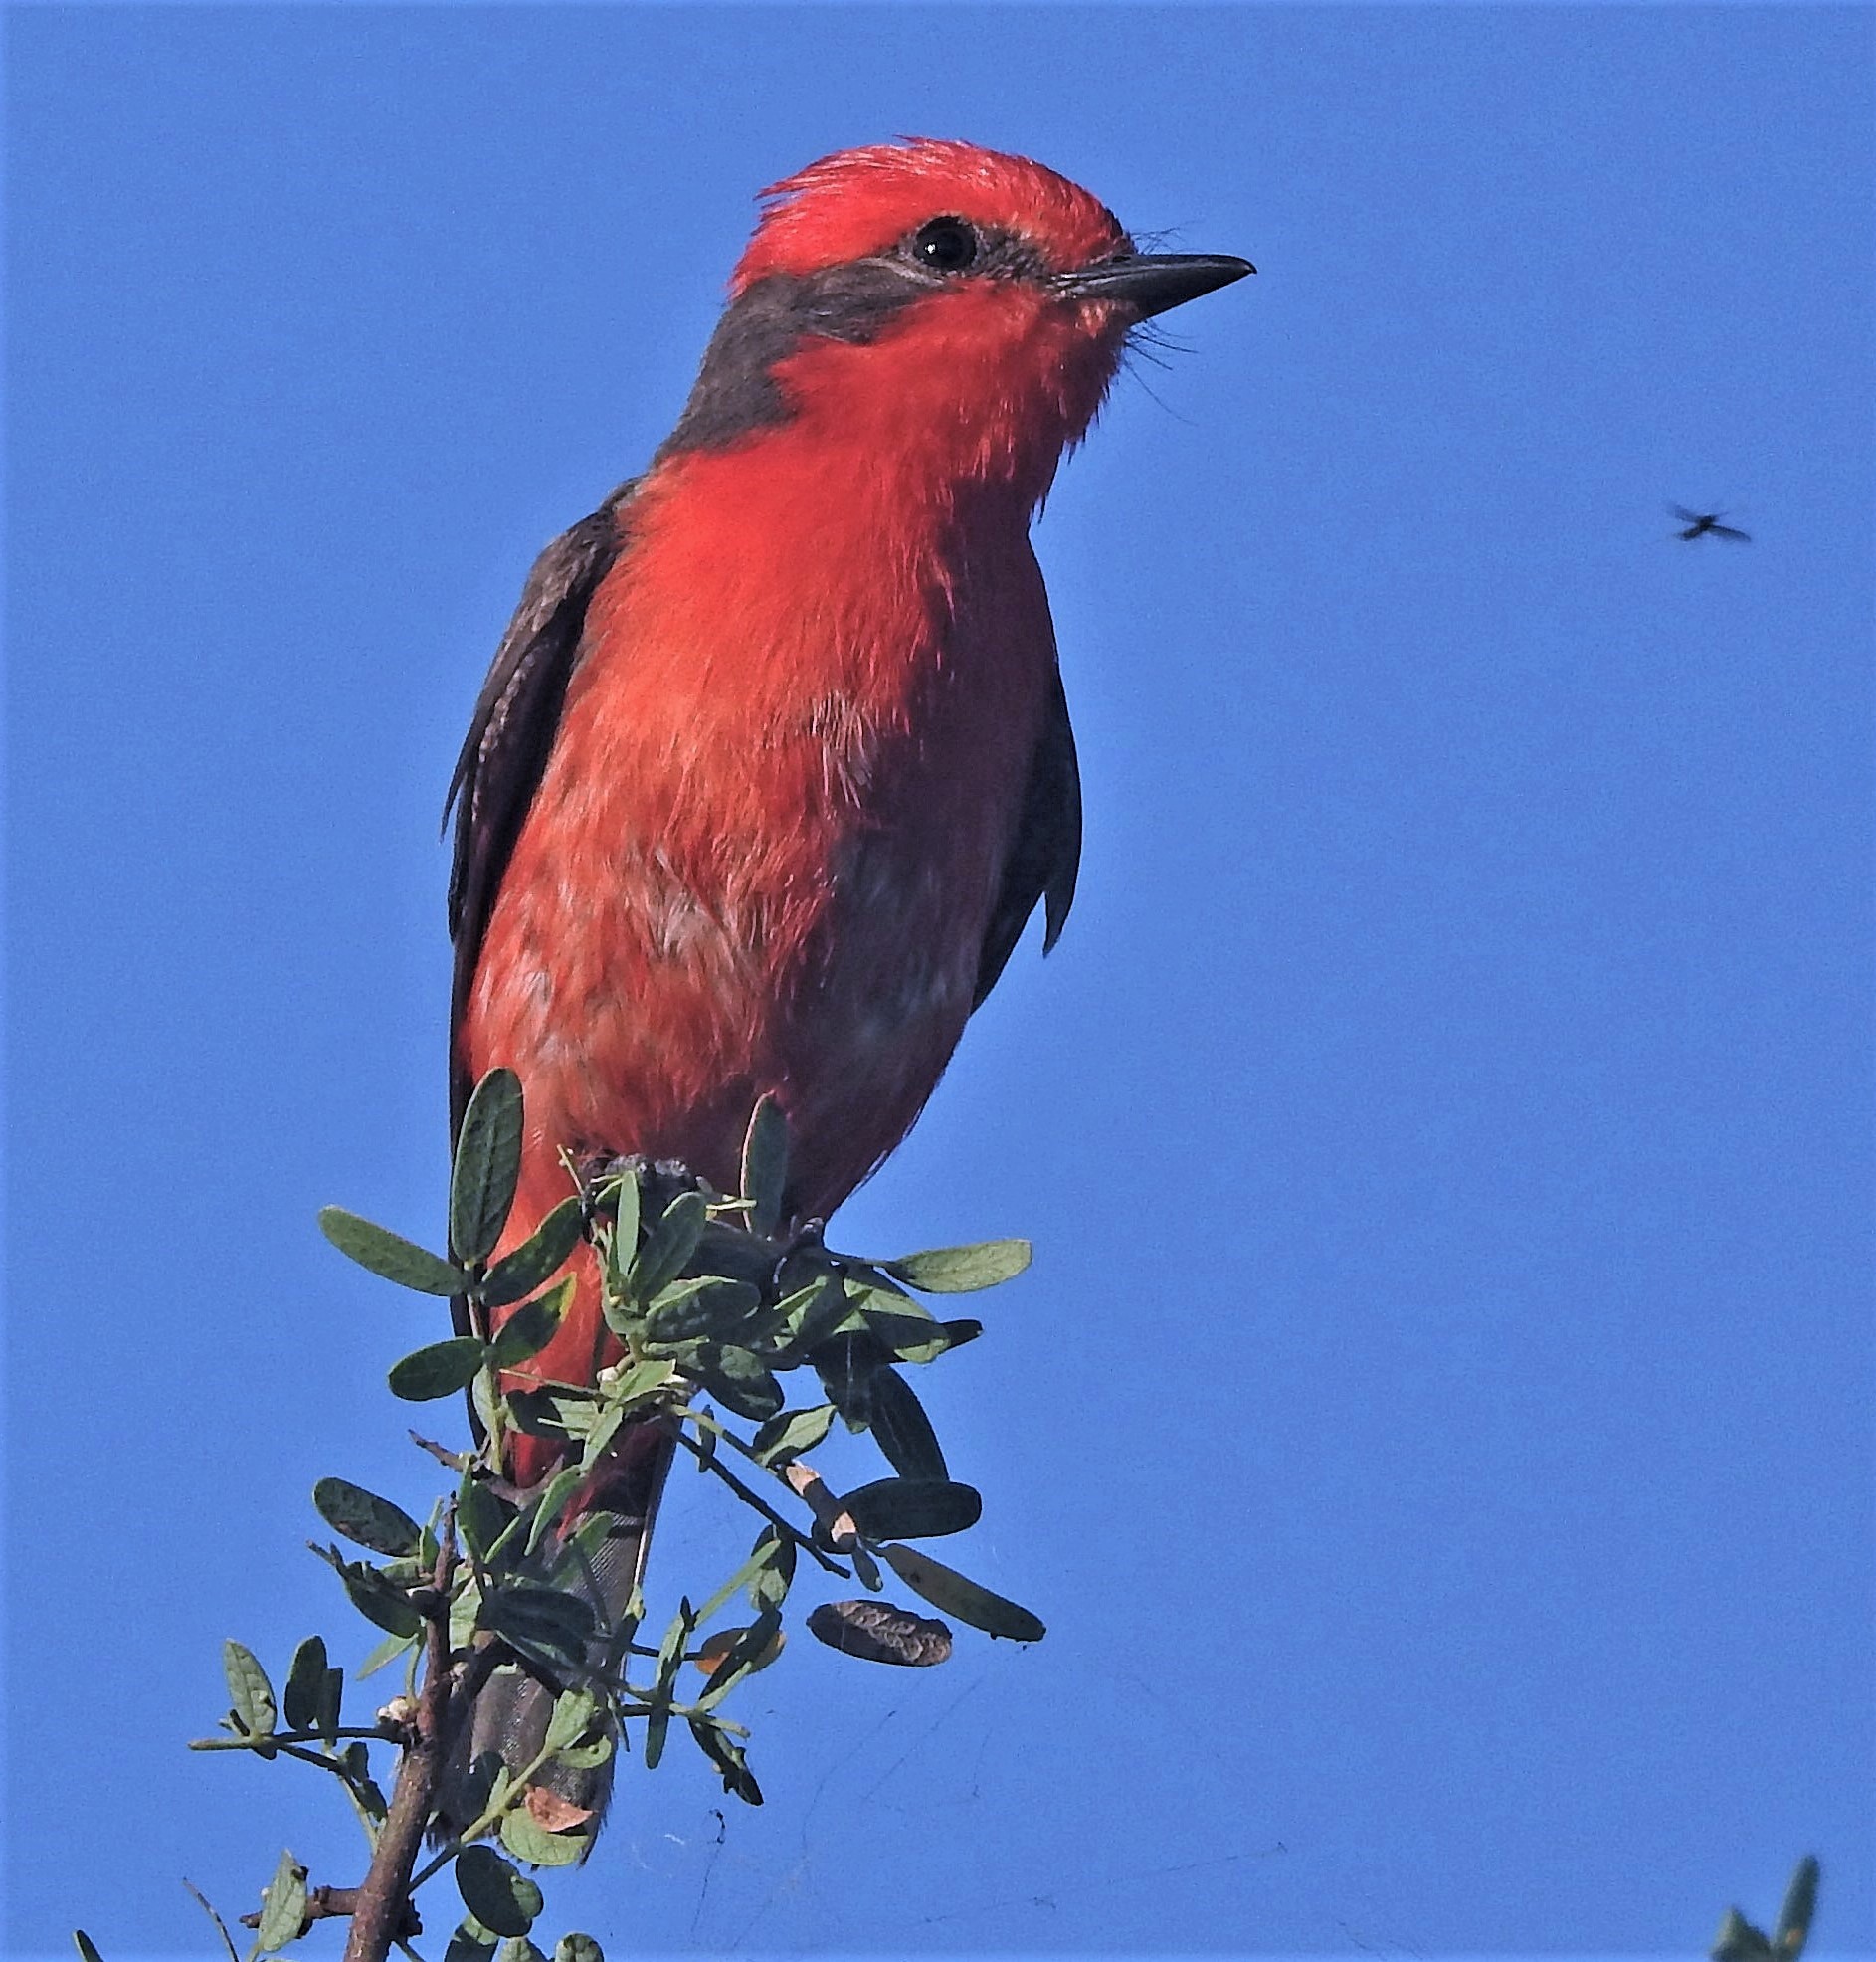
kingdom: Animalia
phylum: Chordata
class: Aves
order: Passeriformes
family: Tyrannidae
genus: Pyrocephalus
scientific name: Pyrocephalus rubinus
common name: Vermilion flycatcher
